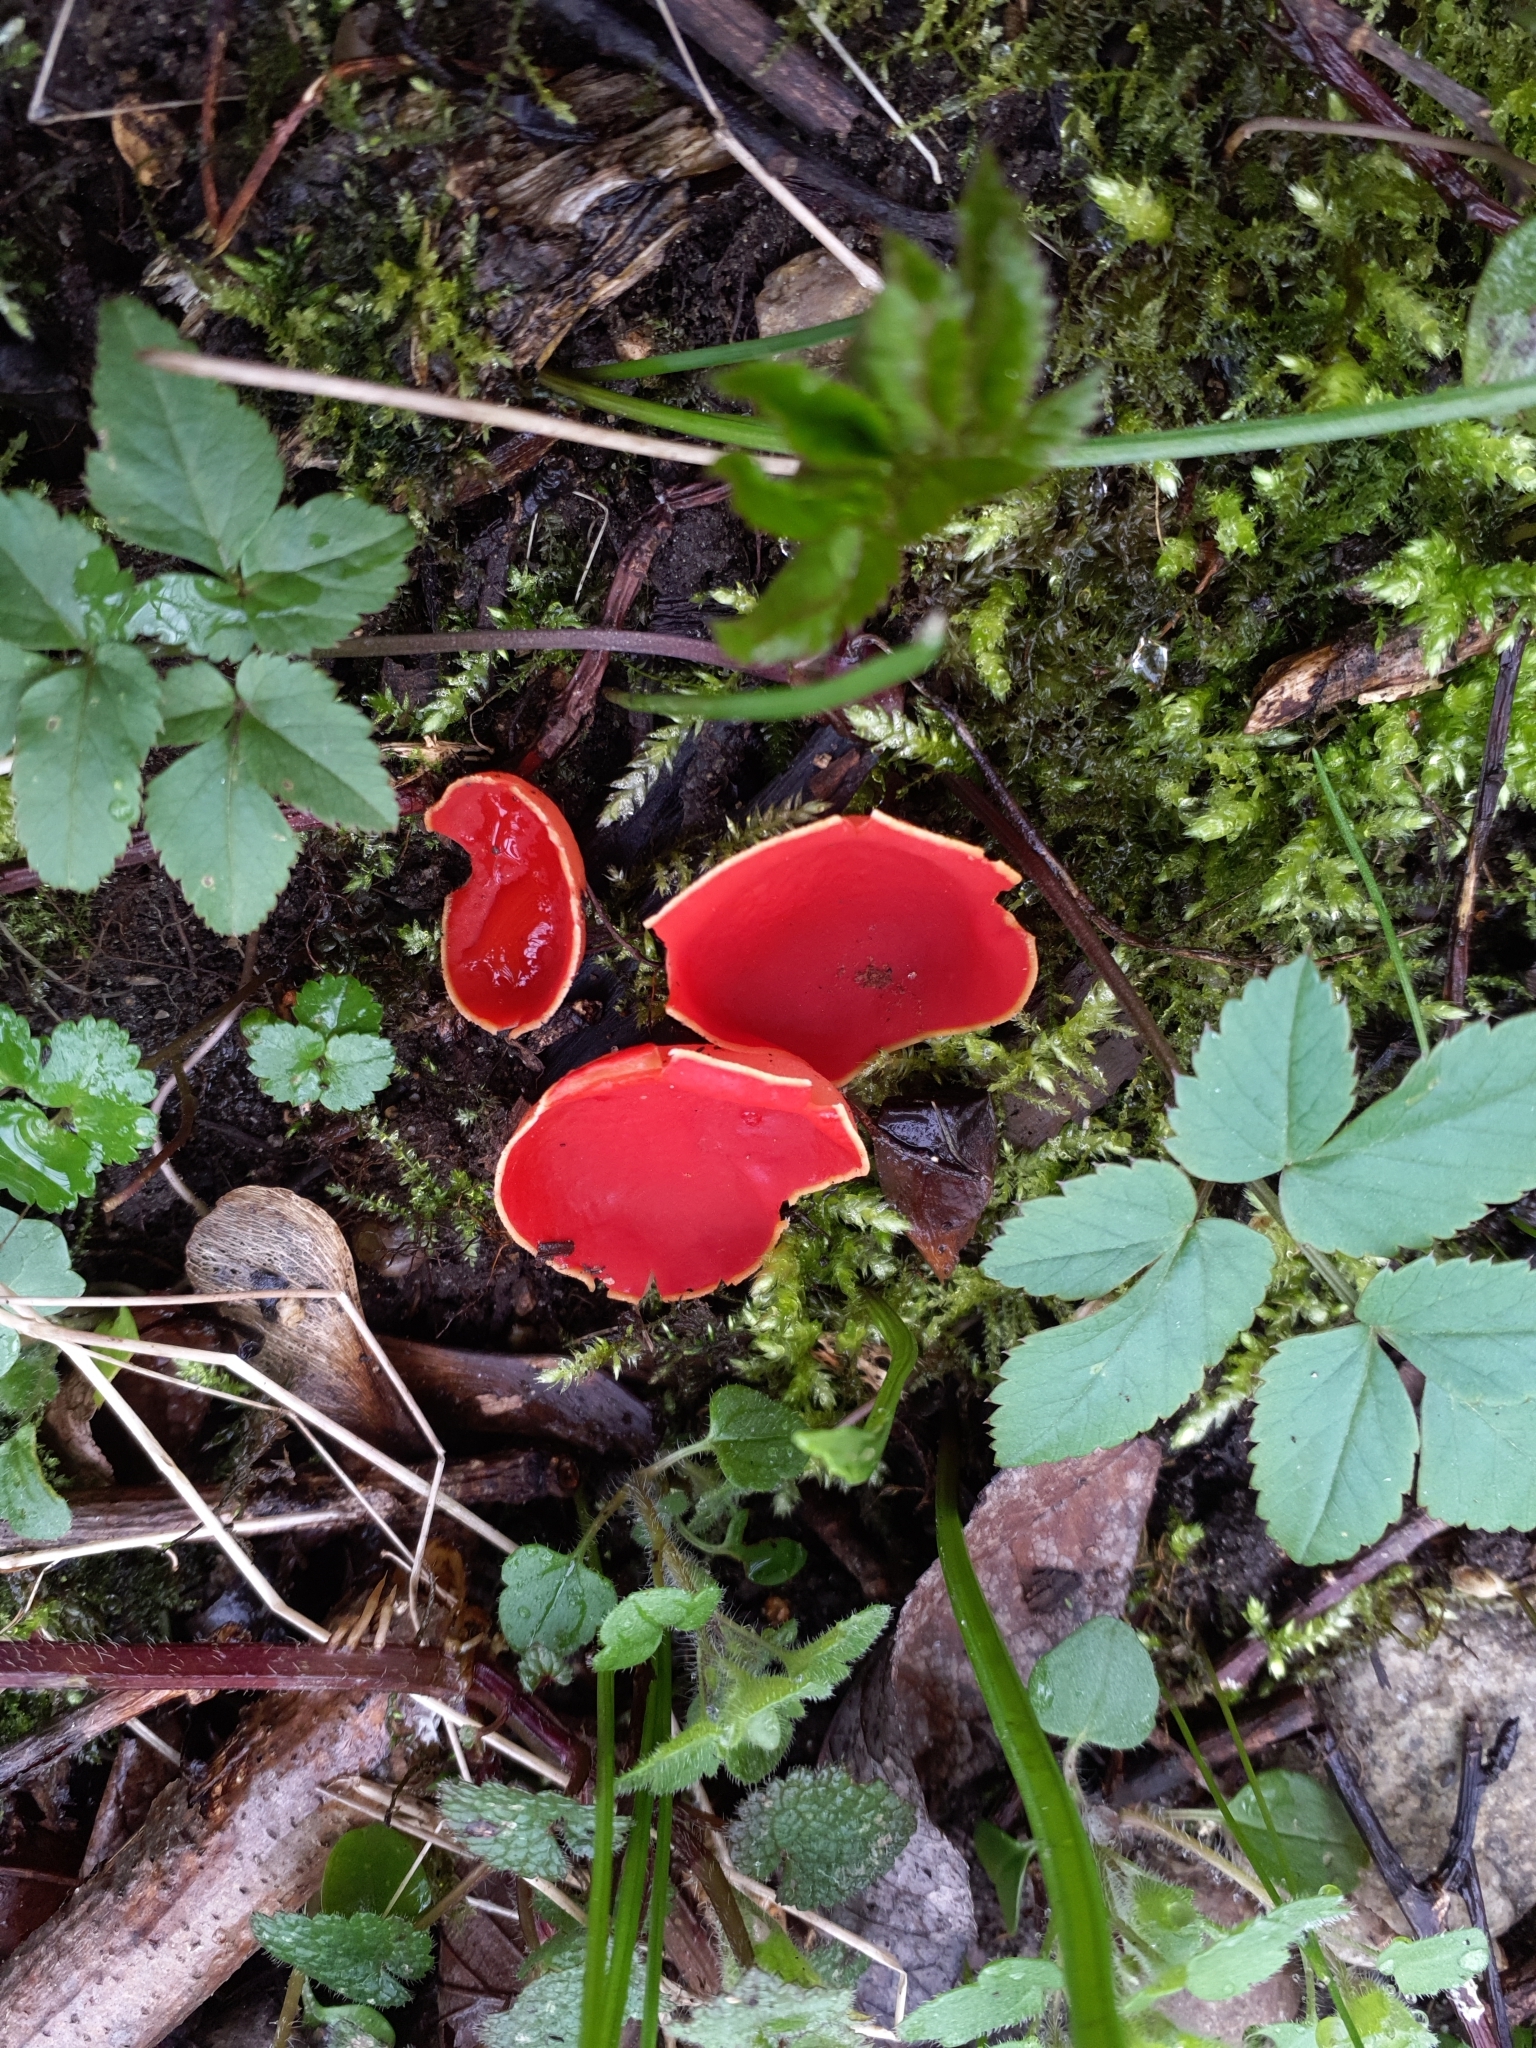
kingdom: Fungi
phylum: Ascomycota
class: Pezizomycetes
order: Pezizales
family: Sarcoscyphaceae
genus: Sarcoscypha
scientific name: Sarcoscypha
